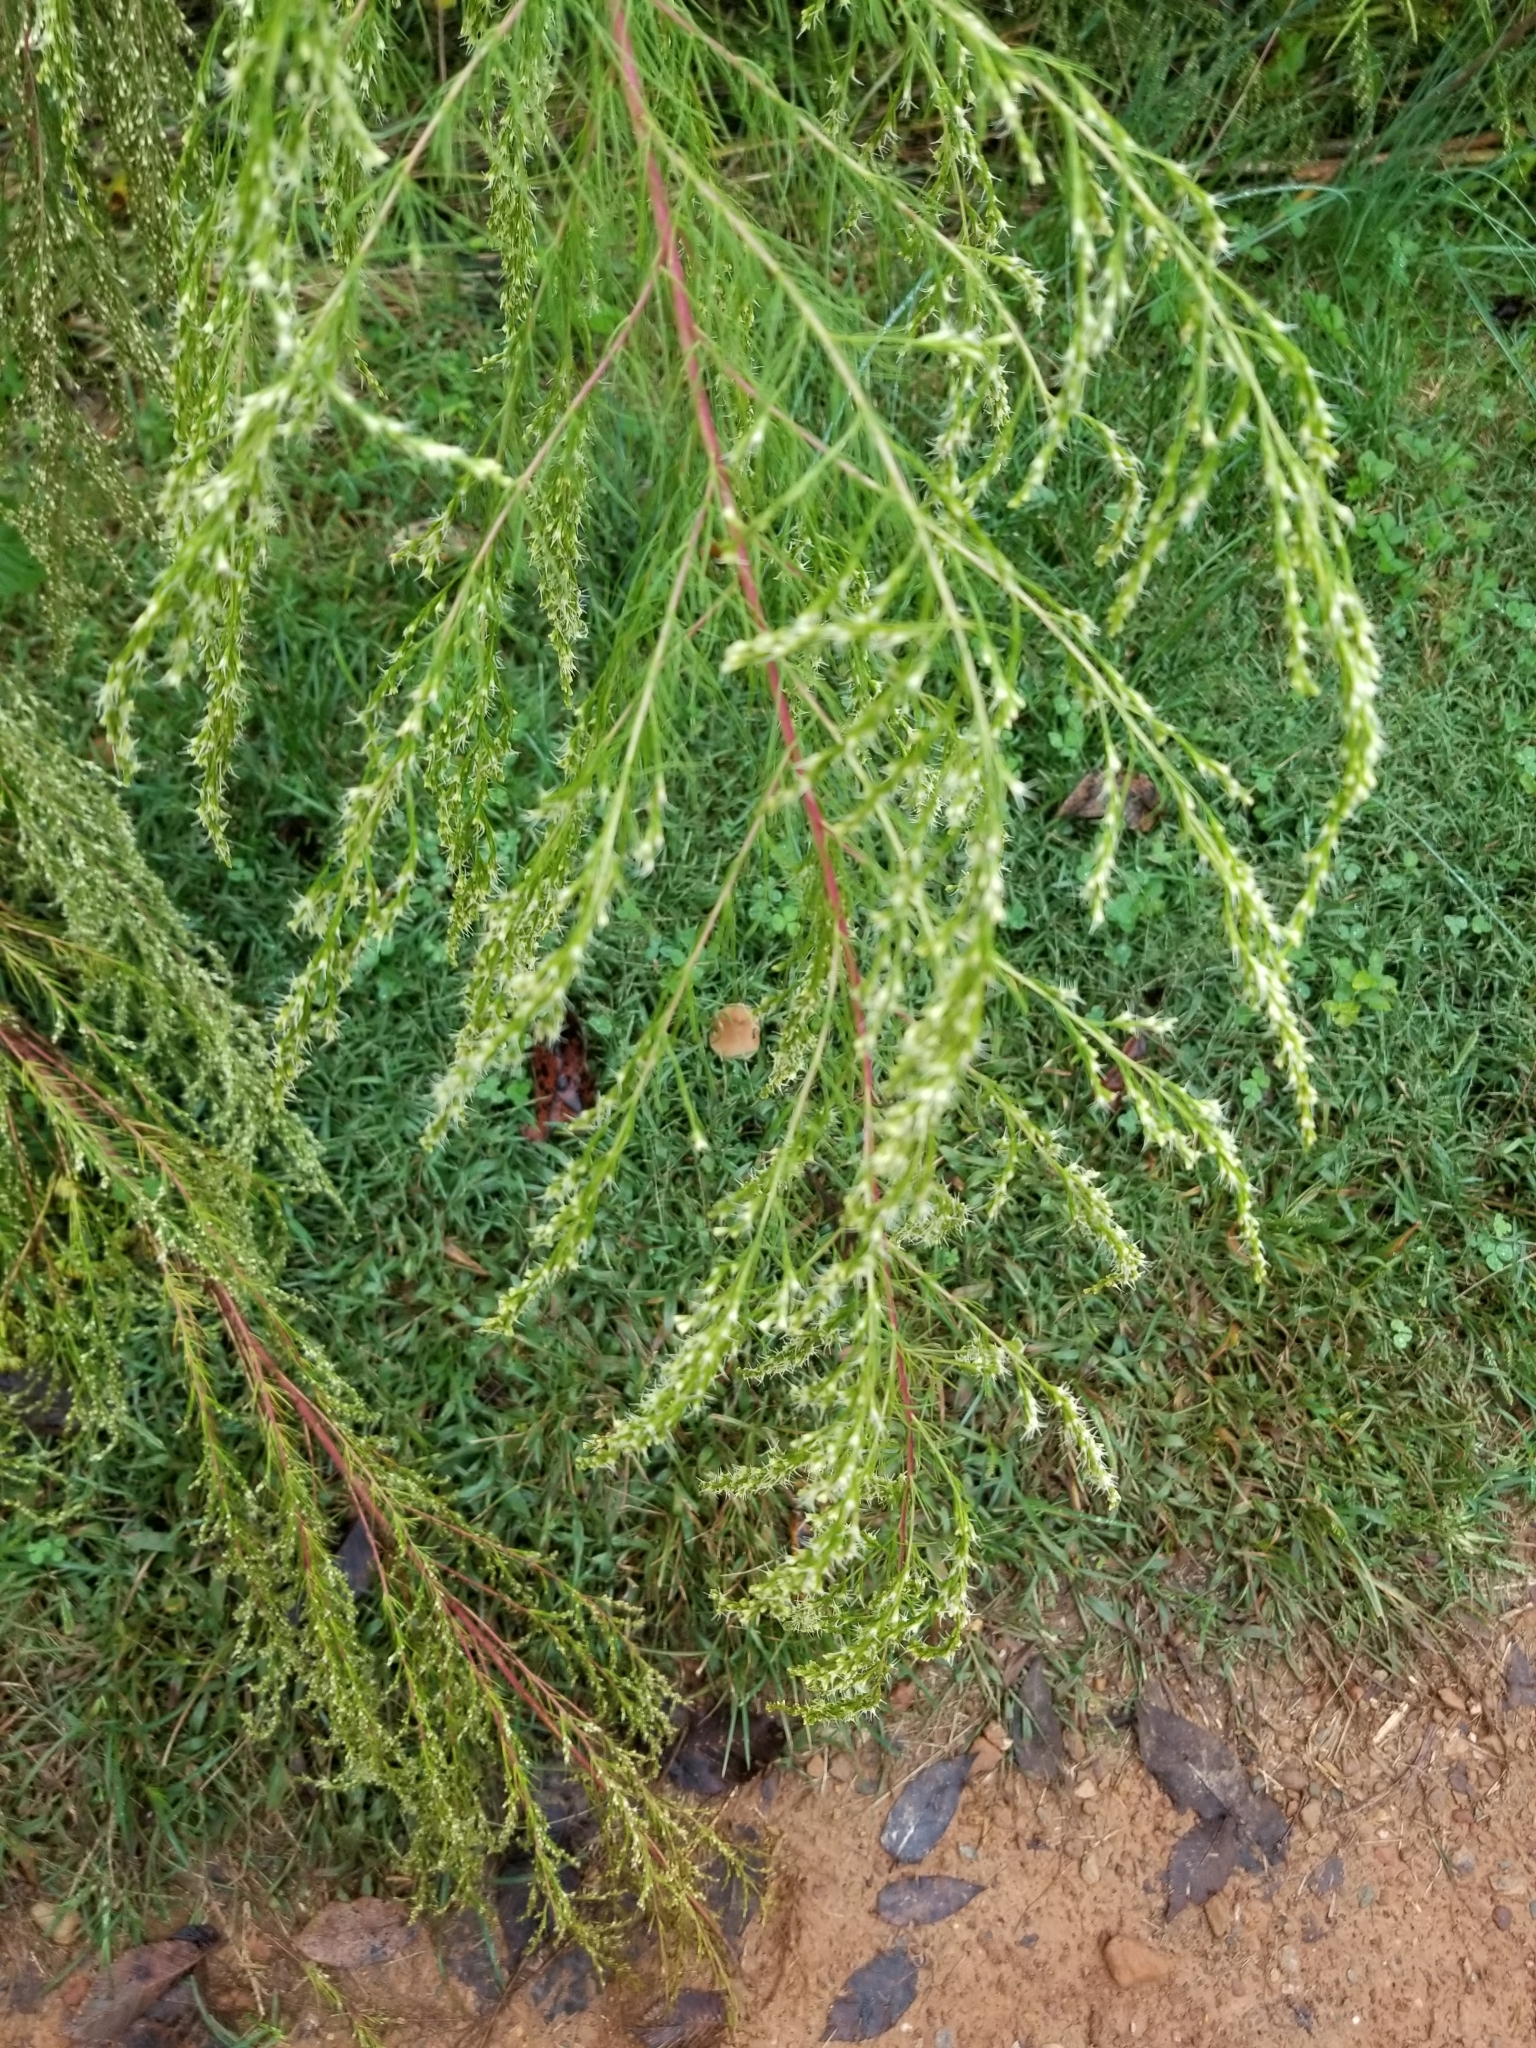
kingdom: Plantae
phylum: Tracheophyta
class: Magnoliopsida
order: Asterales
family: Asteraceae
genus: Eupatorium
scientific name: Eupatorium capillifolium
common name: Dog-fennel
